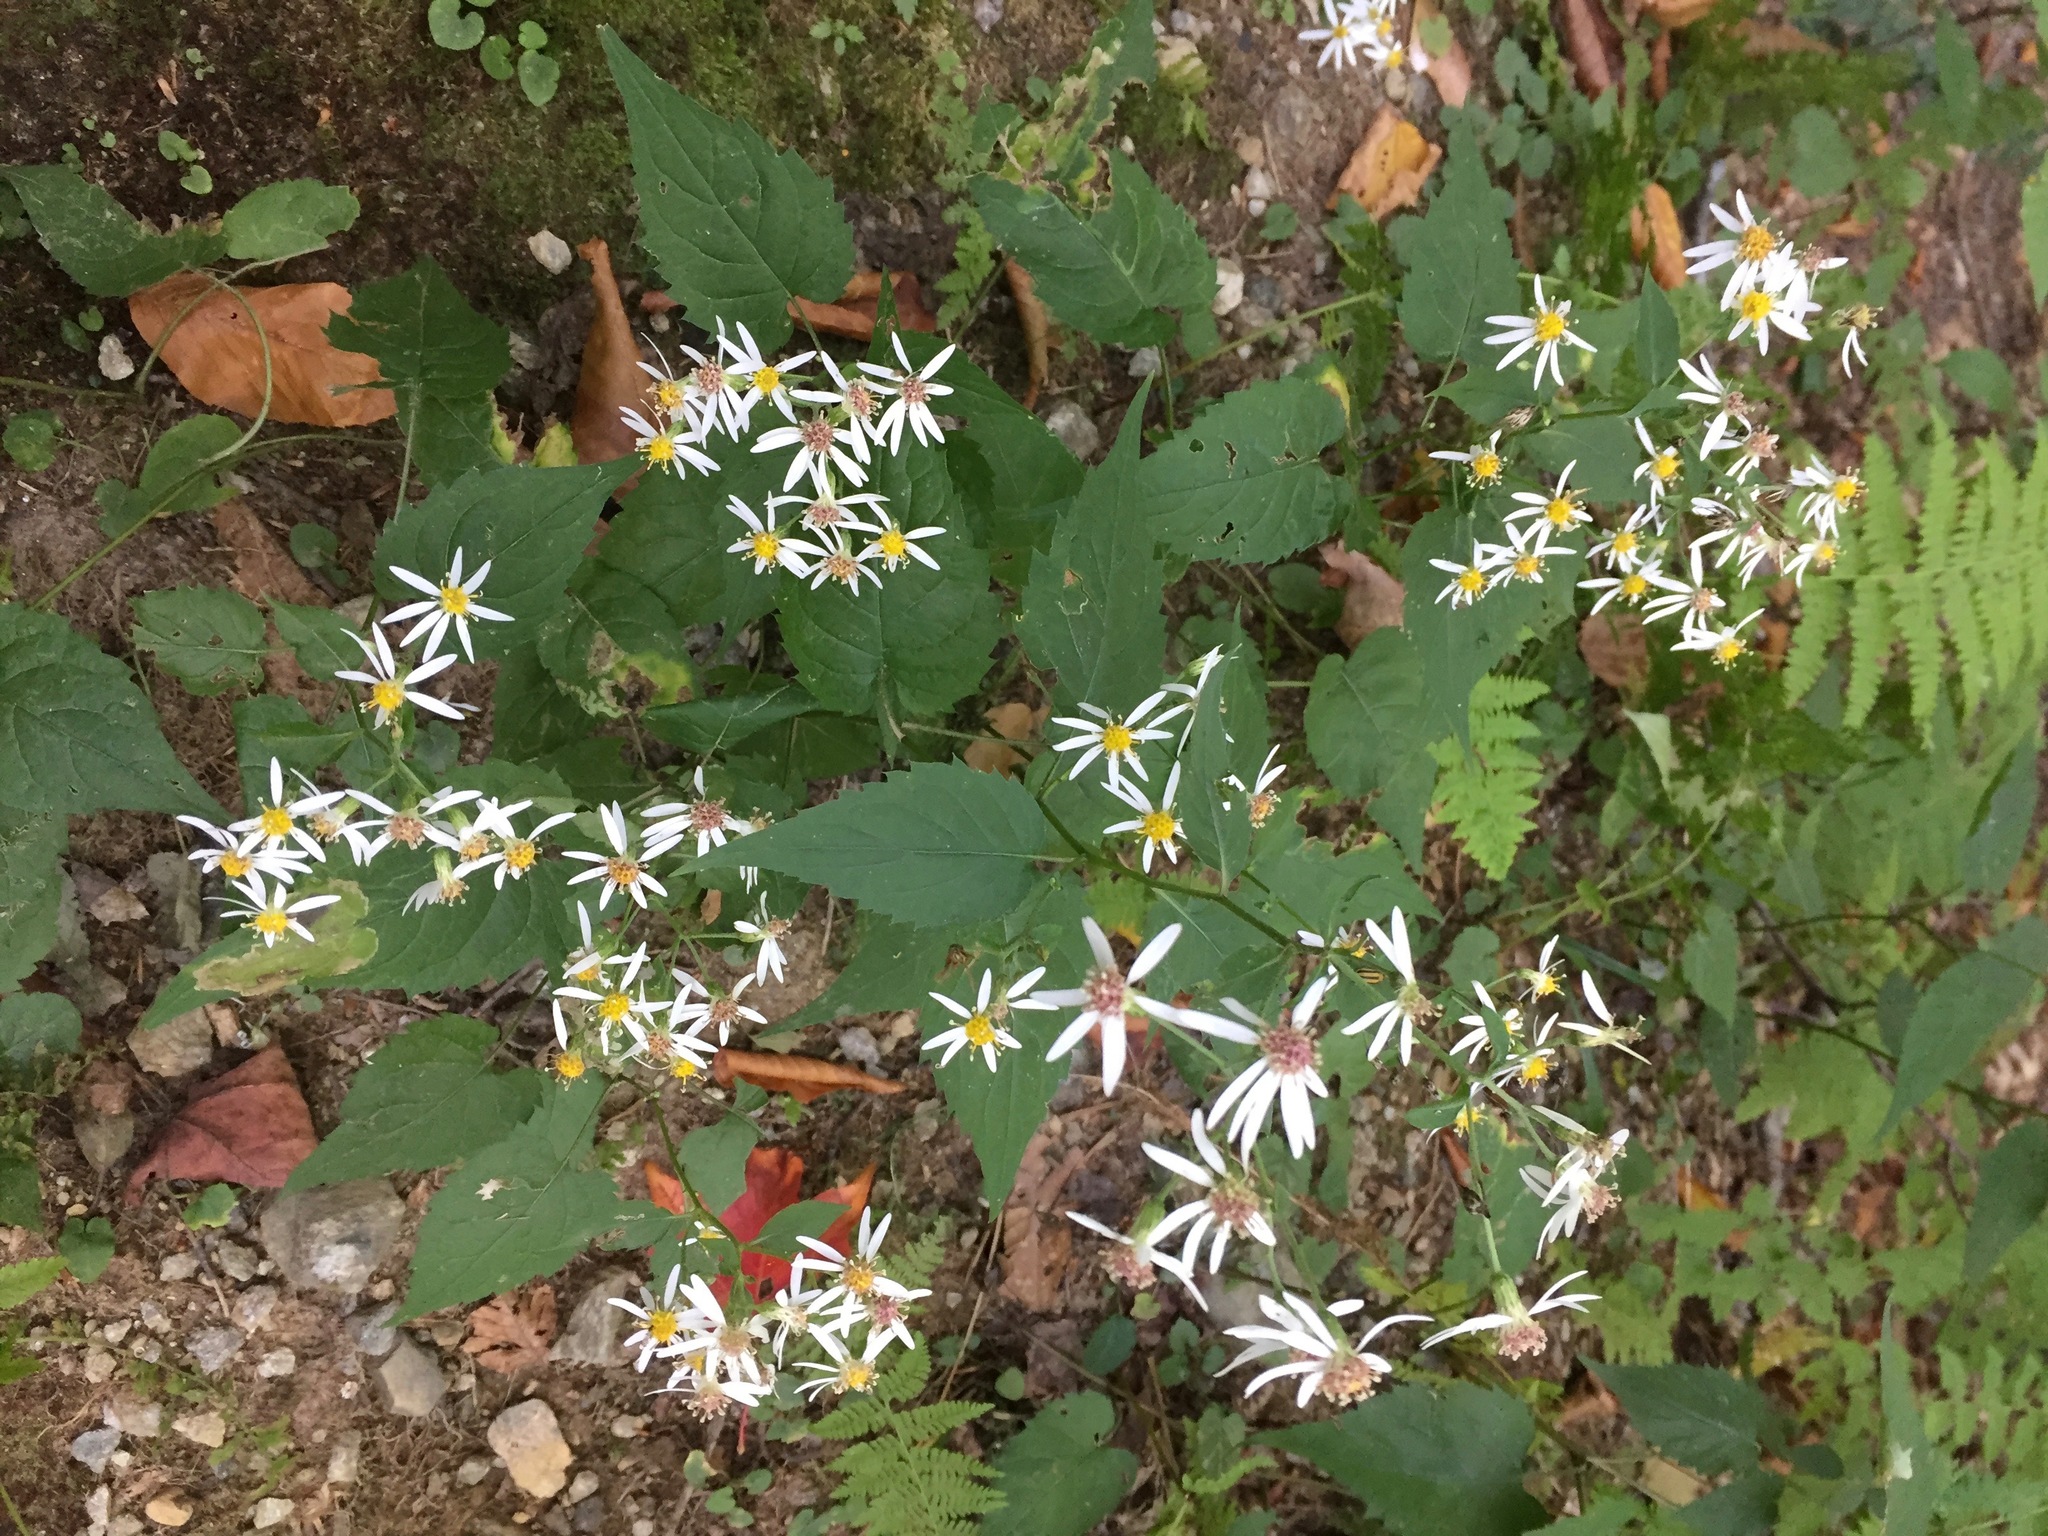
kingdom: Plantae
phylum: Tracheophyta
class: Magnoliopsida
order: Asterales
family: Asteraceae
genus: Eurybia
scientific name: Eurybia divaricata
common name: White wood aster
